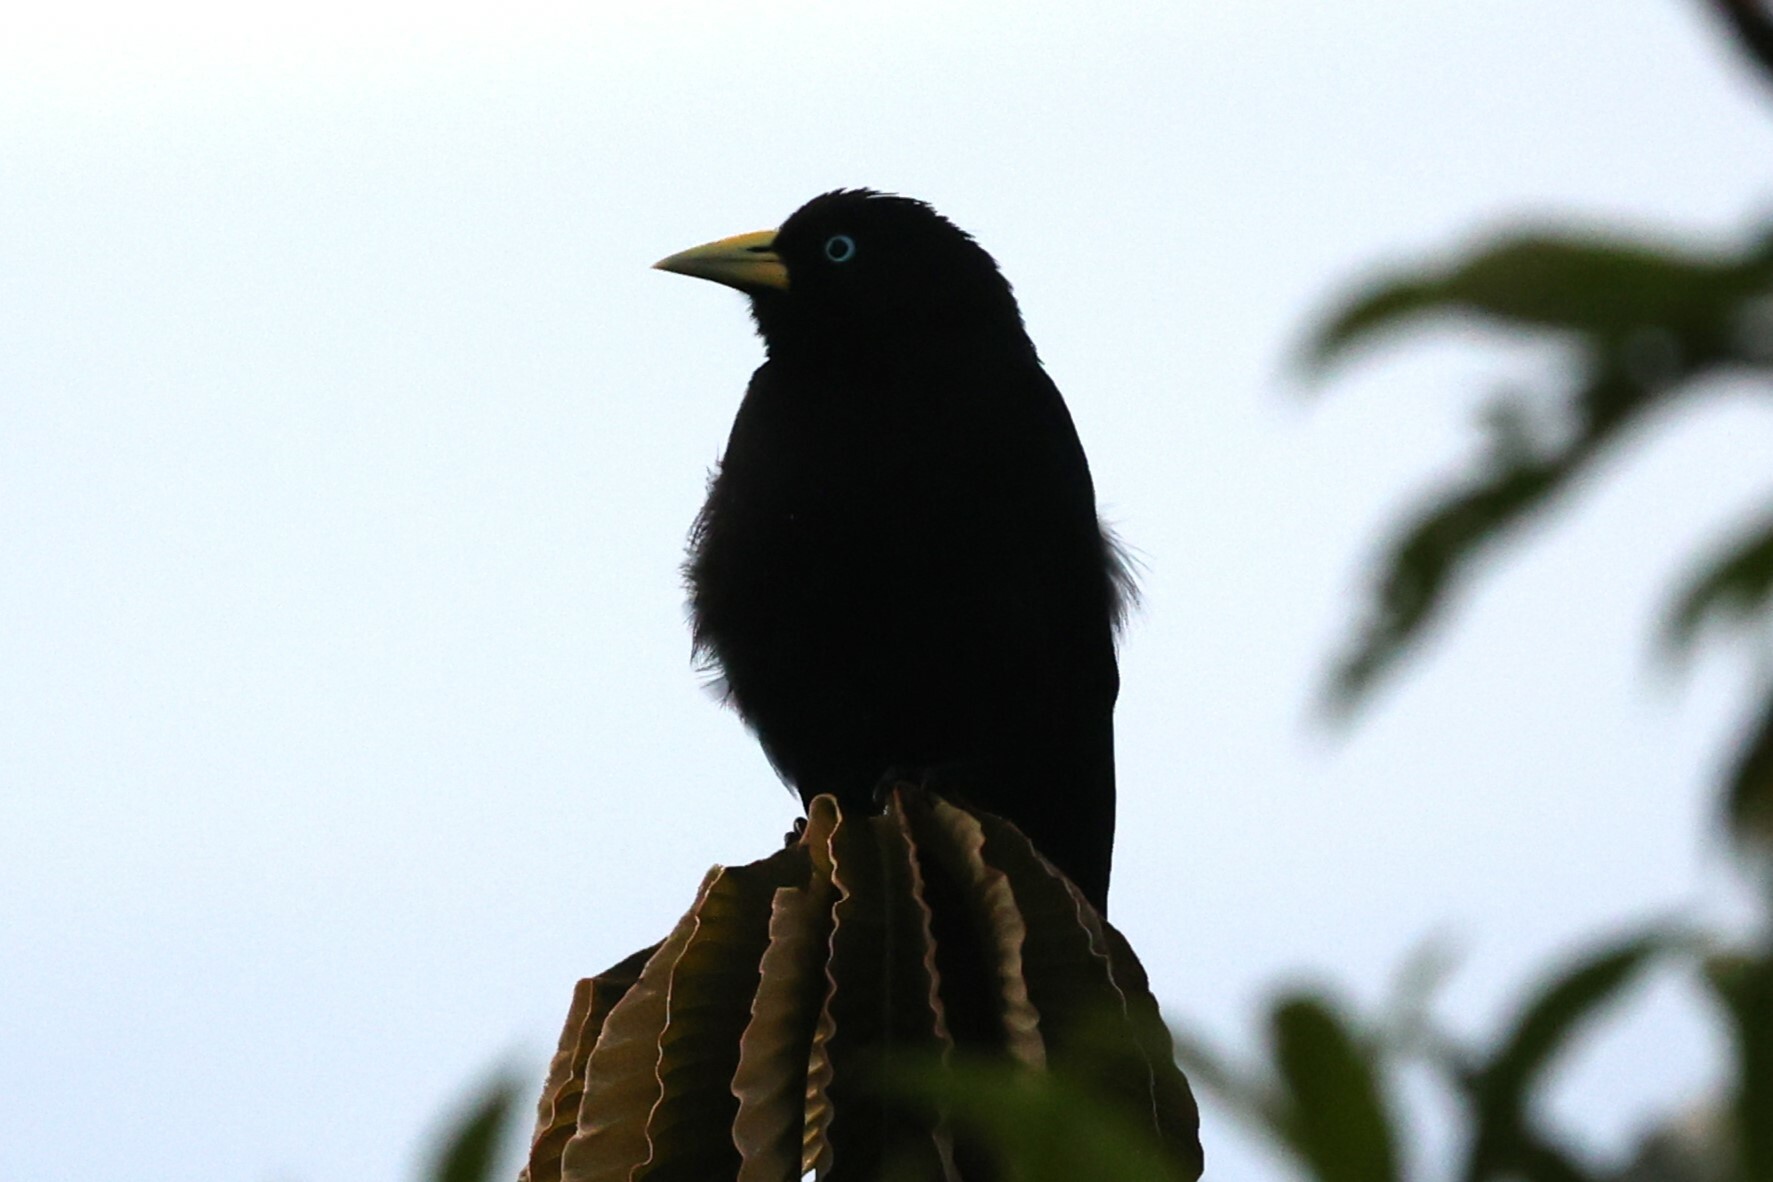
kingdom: Animalia
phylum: Chordata
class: Aves
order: Passeriformes
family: Icteridae
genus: Cacicus
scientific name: Cacicus uropygialis
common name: Scarlet-rumped cacique
